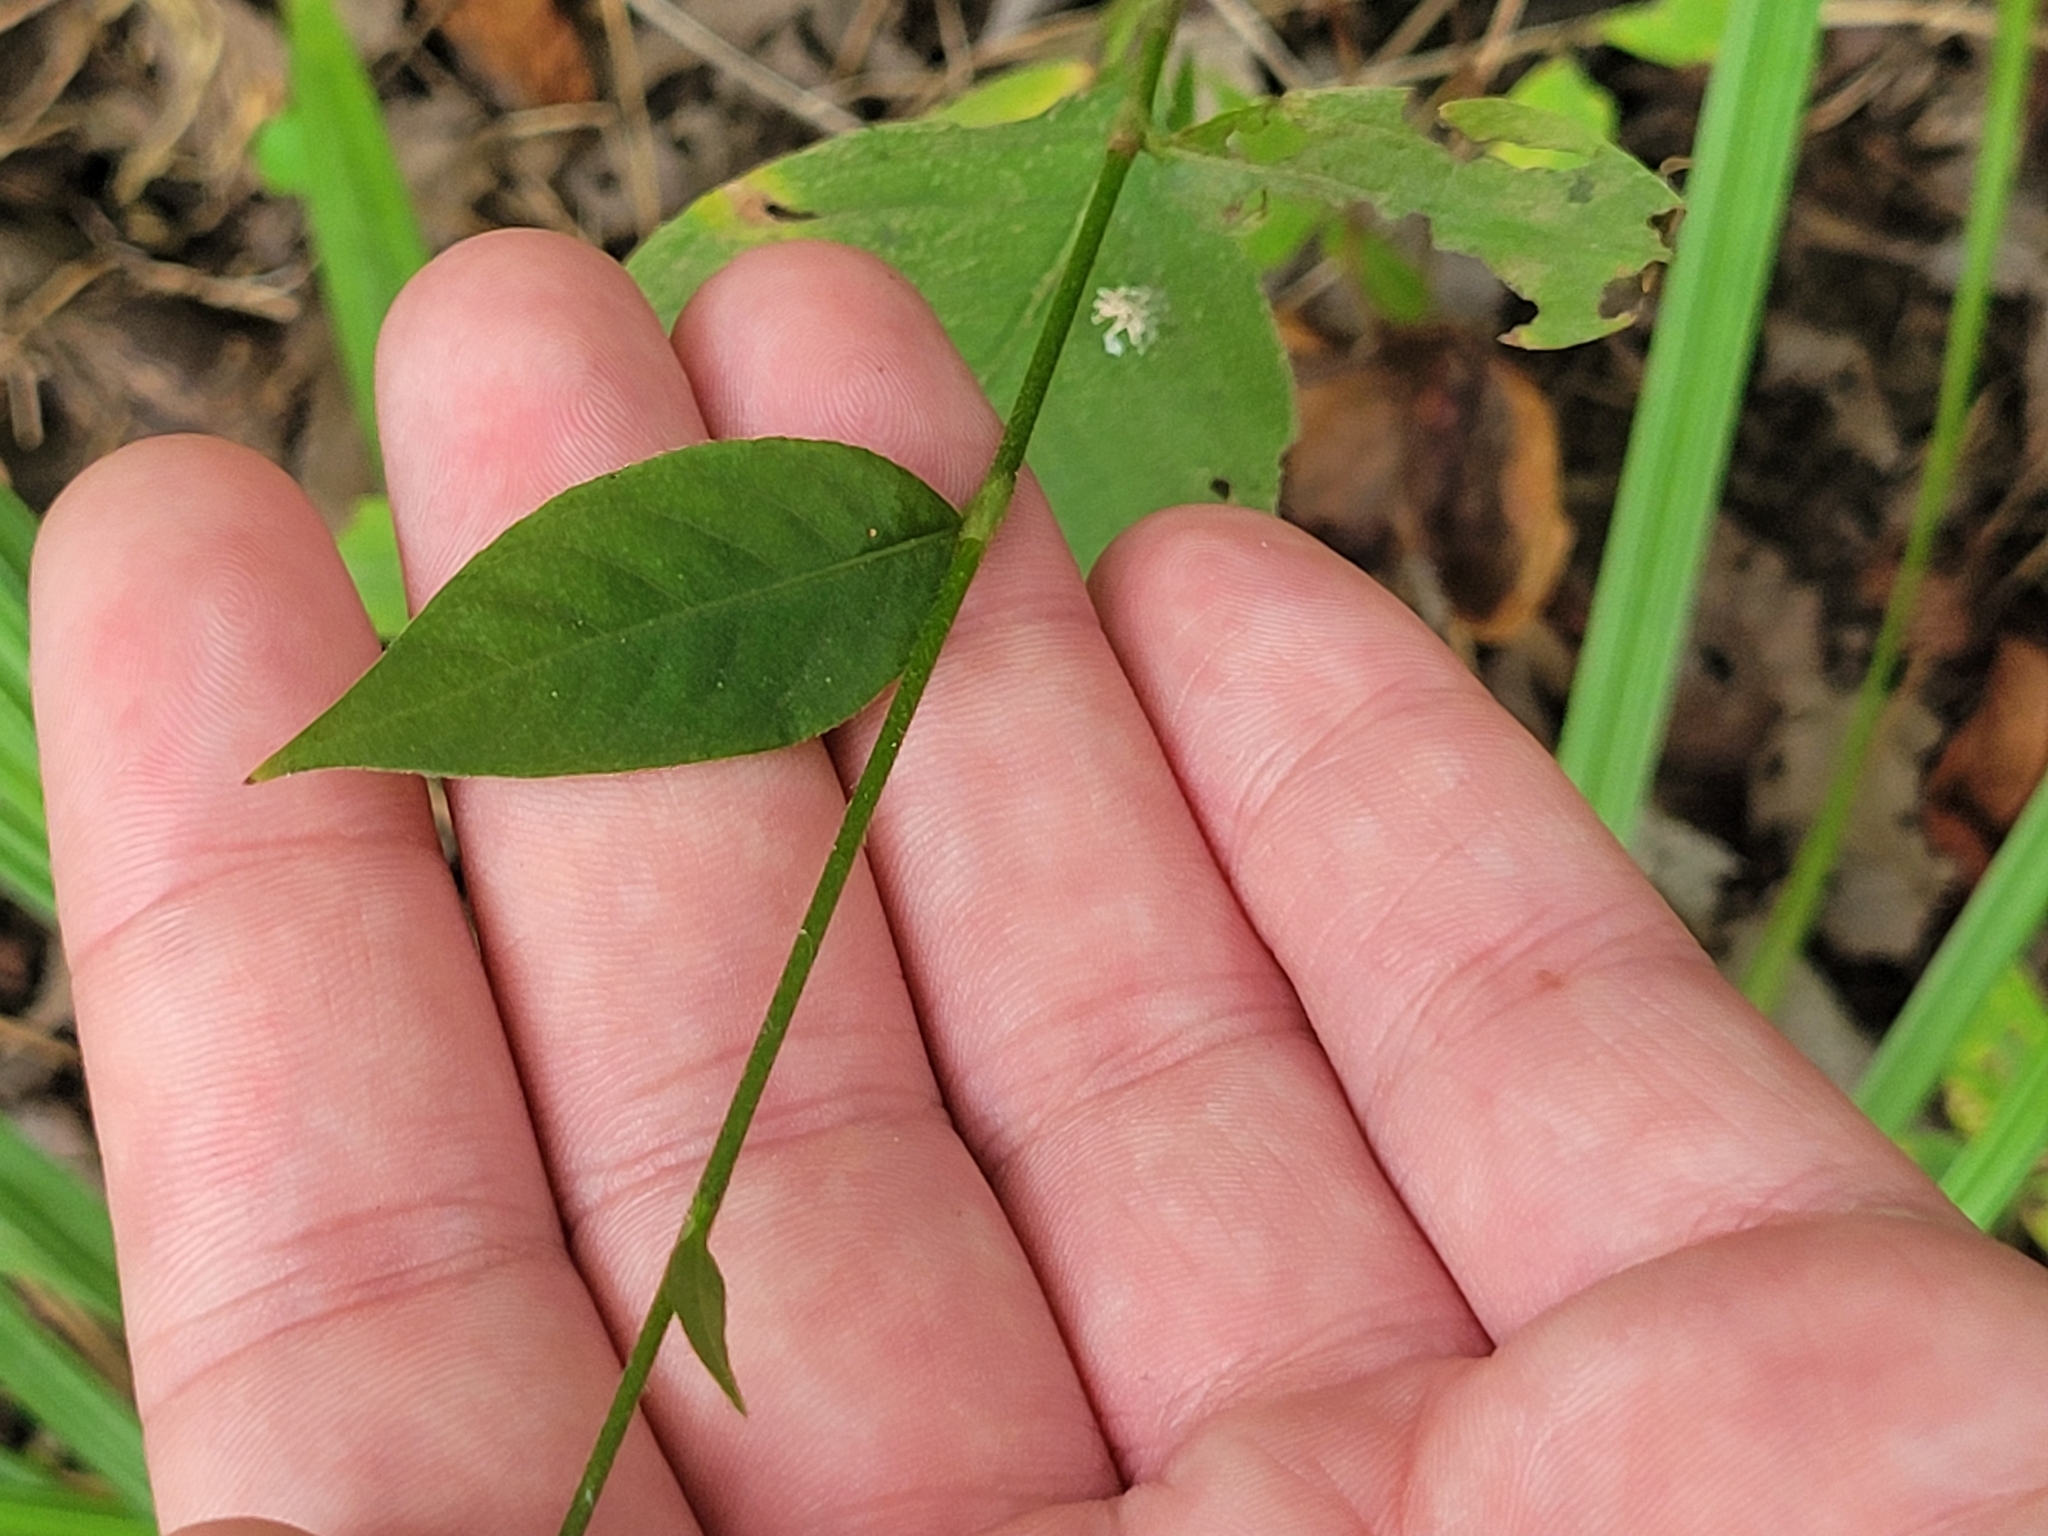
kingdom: Plantae
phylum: Tracheophyta
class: Magnoliopsida
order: Caryophyllales
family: Polygonaceae
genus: Persicaria
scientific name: Persicaria virginiana
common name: Jumpseed
